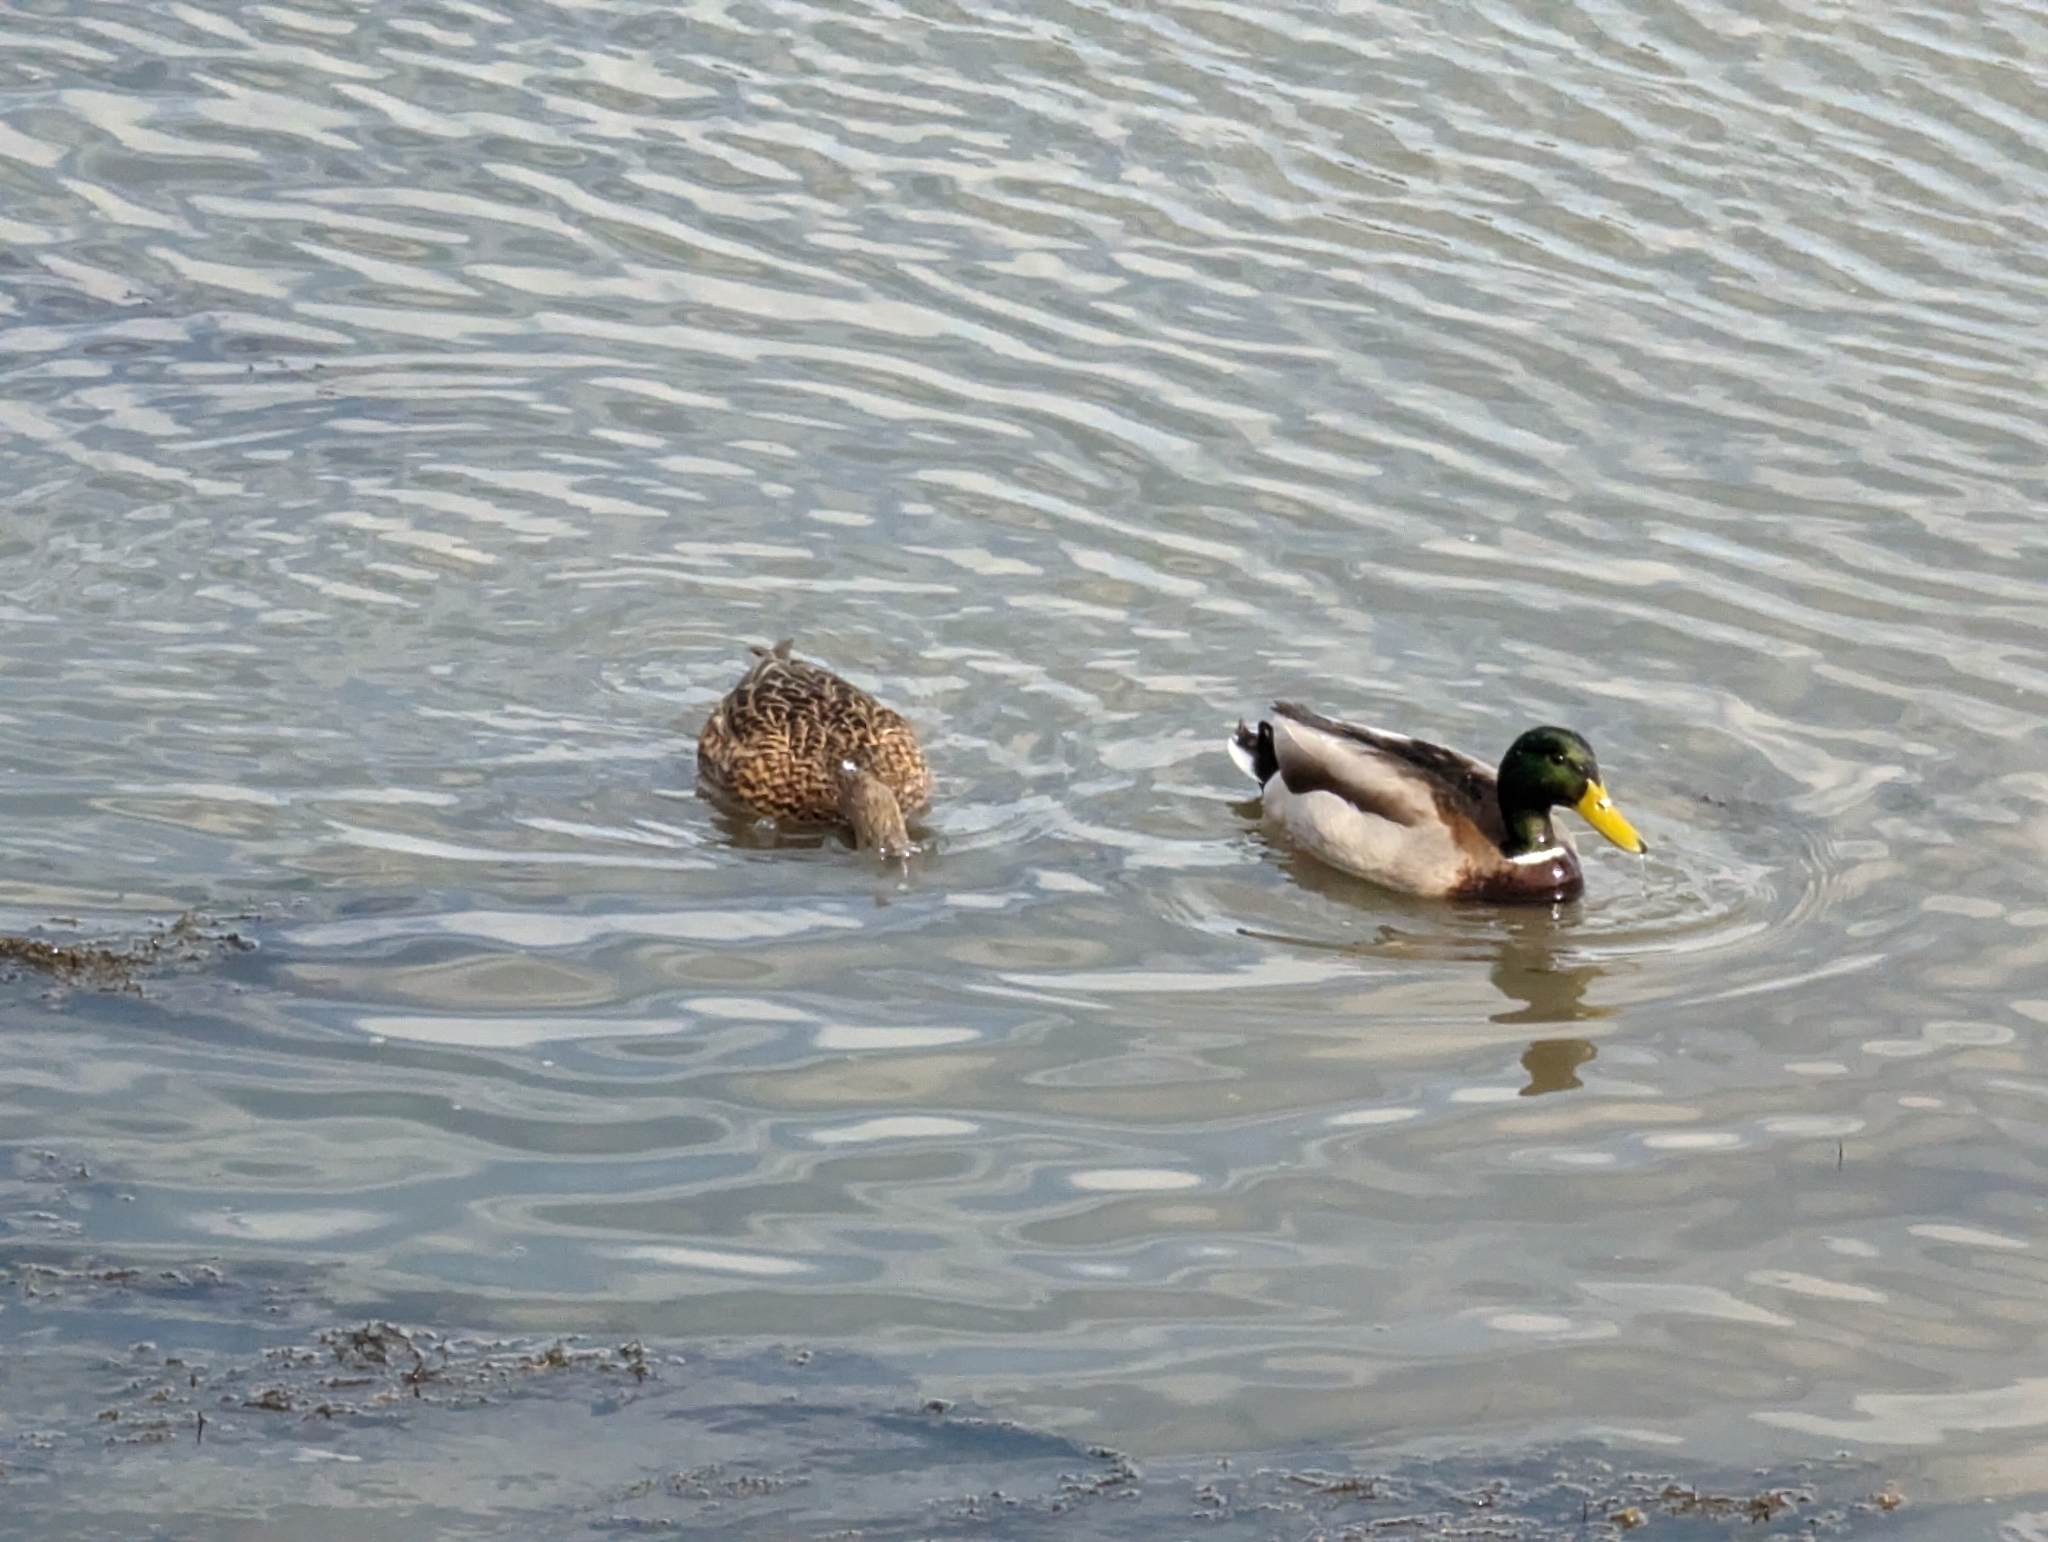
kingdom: Animalia
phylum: Chordata
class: Aves
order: Anseriformes
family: Anatidae
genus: Anas
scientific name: Anas platyrhynchos
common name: Mallard
